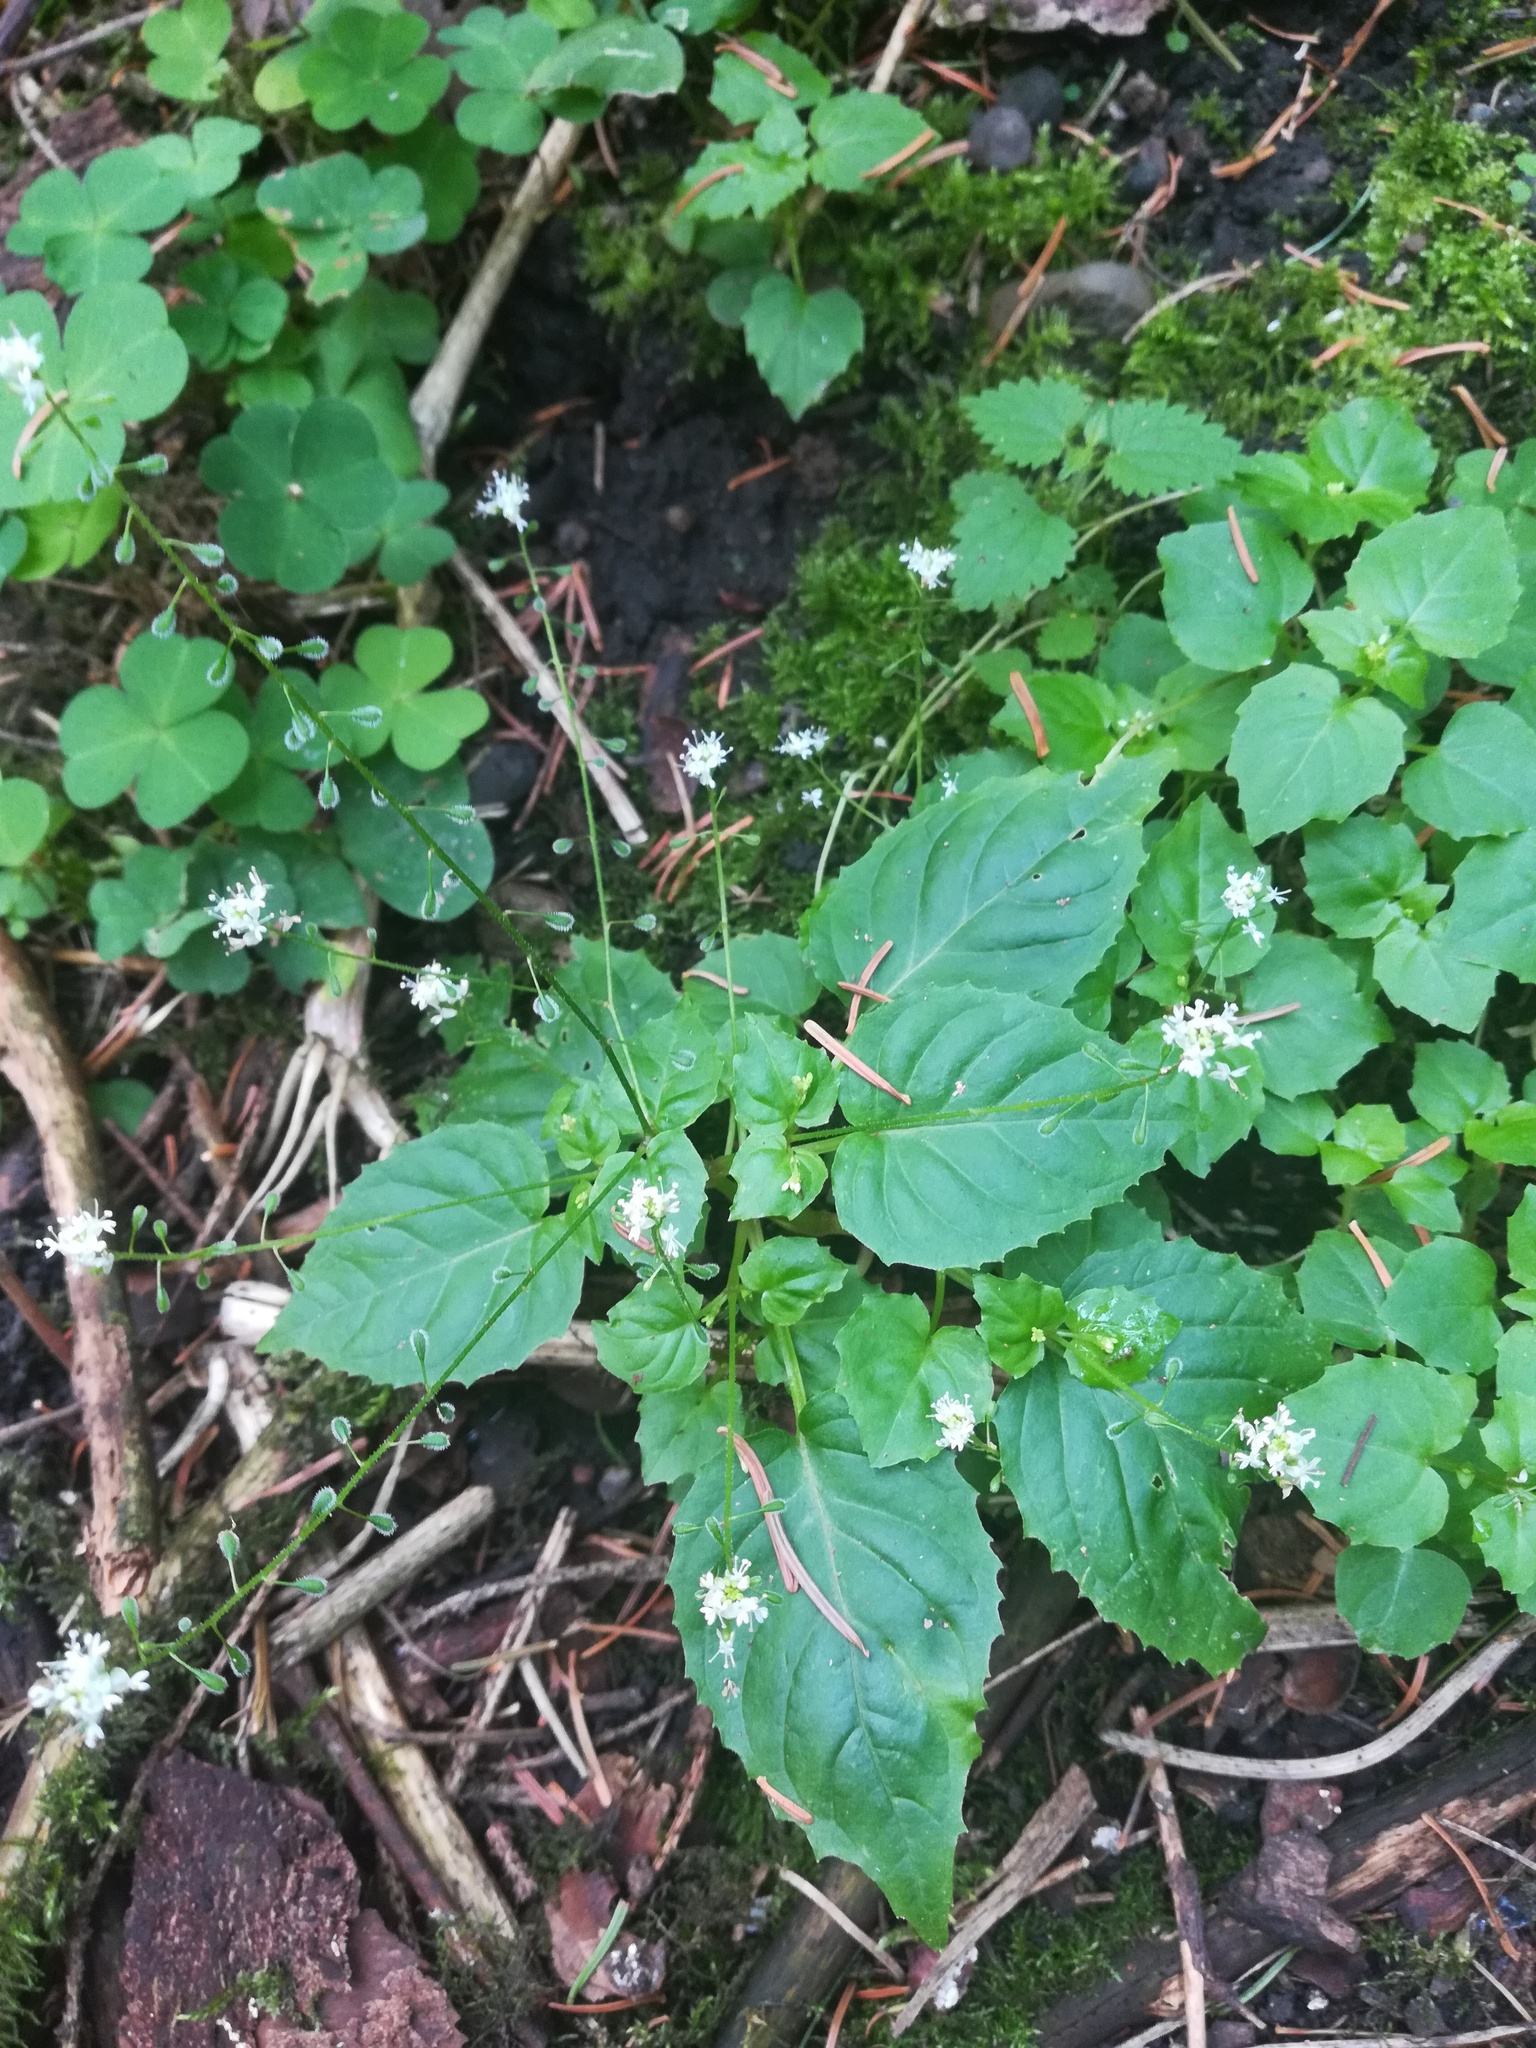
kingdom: Plantae
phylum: Tracheophyta
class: Magnoliopsida
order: Myrtales
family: Onagraceae
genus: Circaea
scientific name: Circaea alpina
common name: Alpine enchanter's-nightshade
